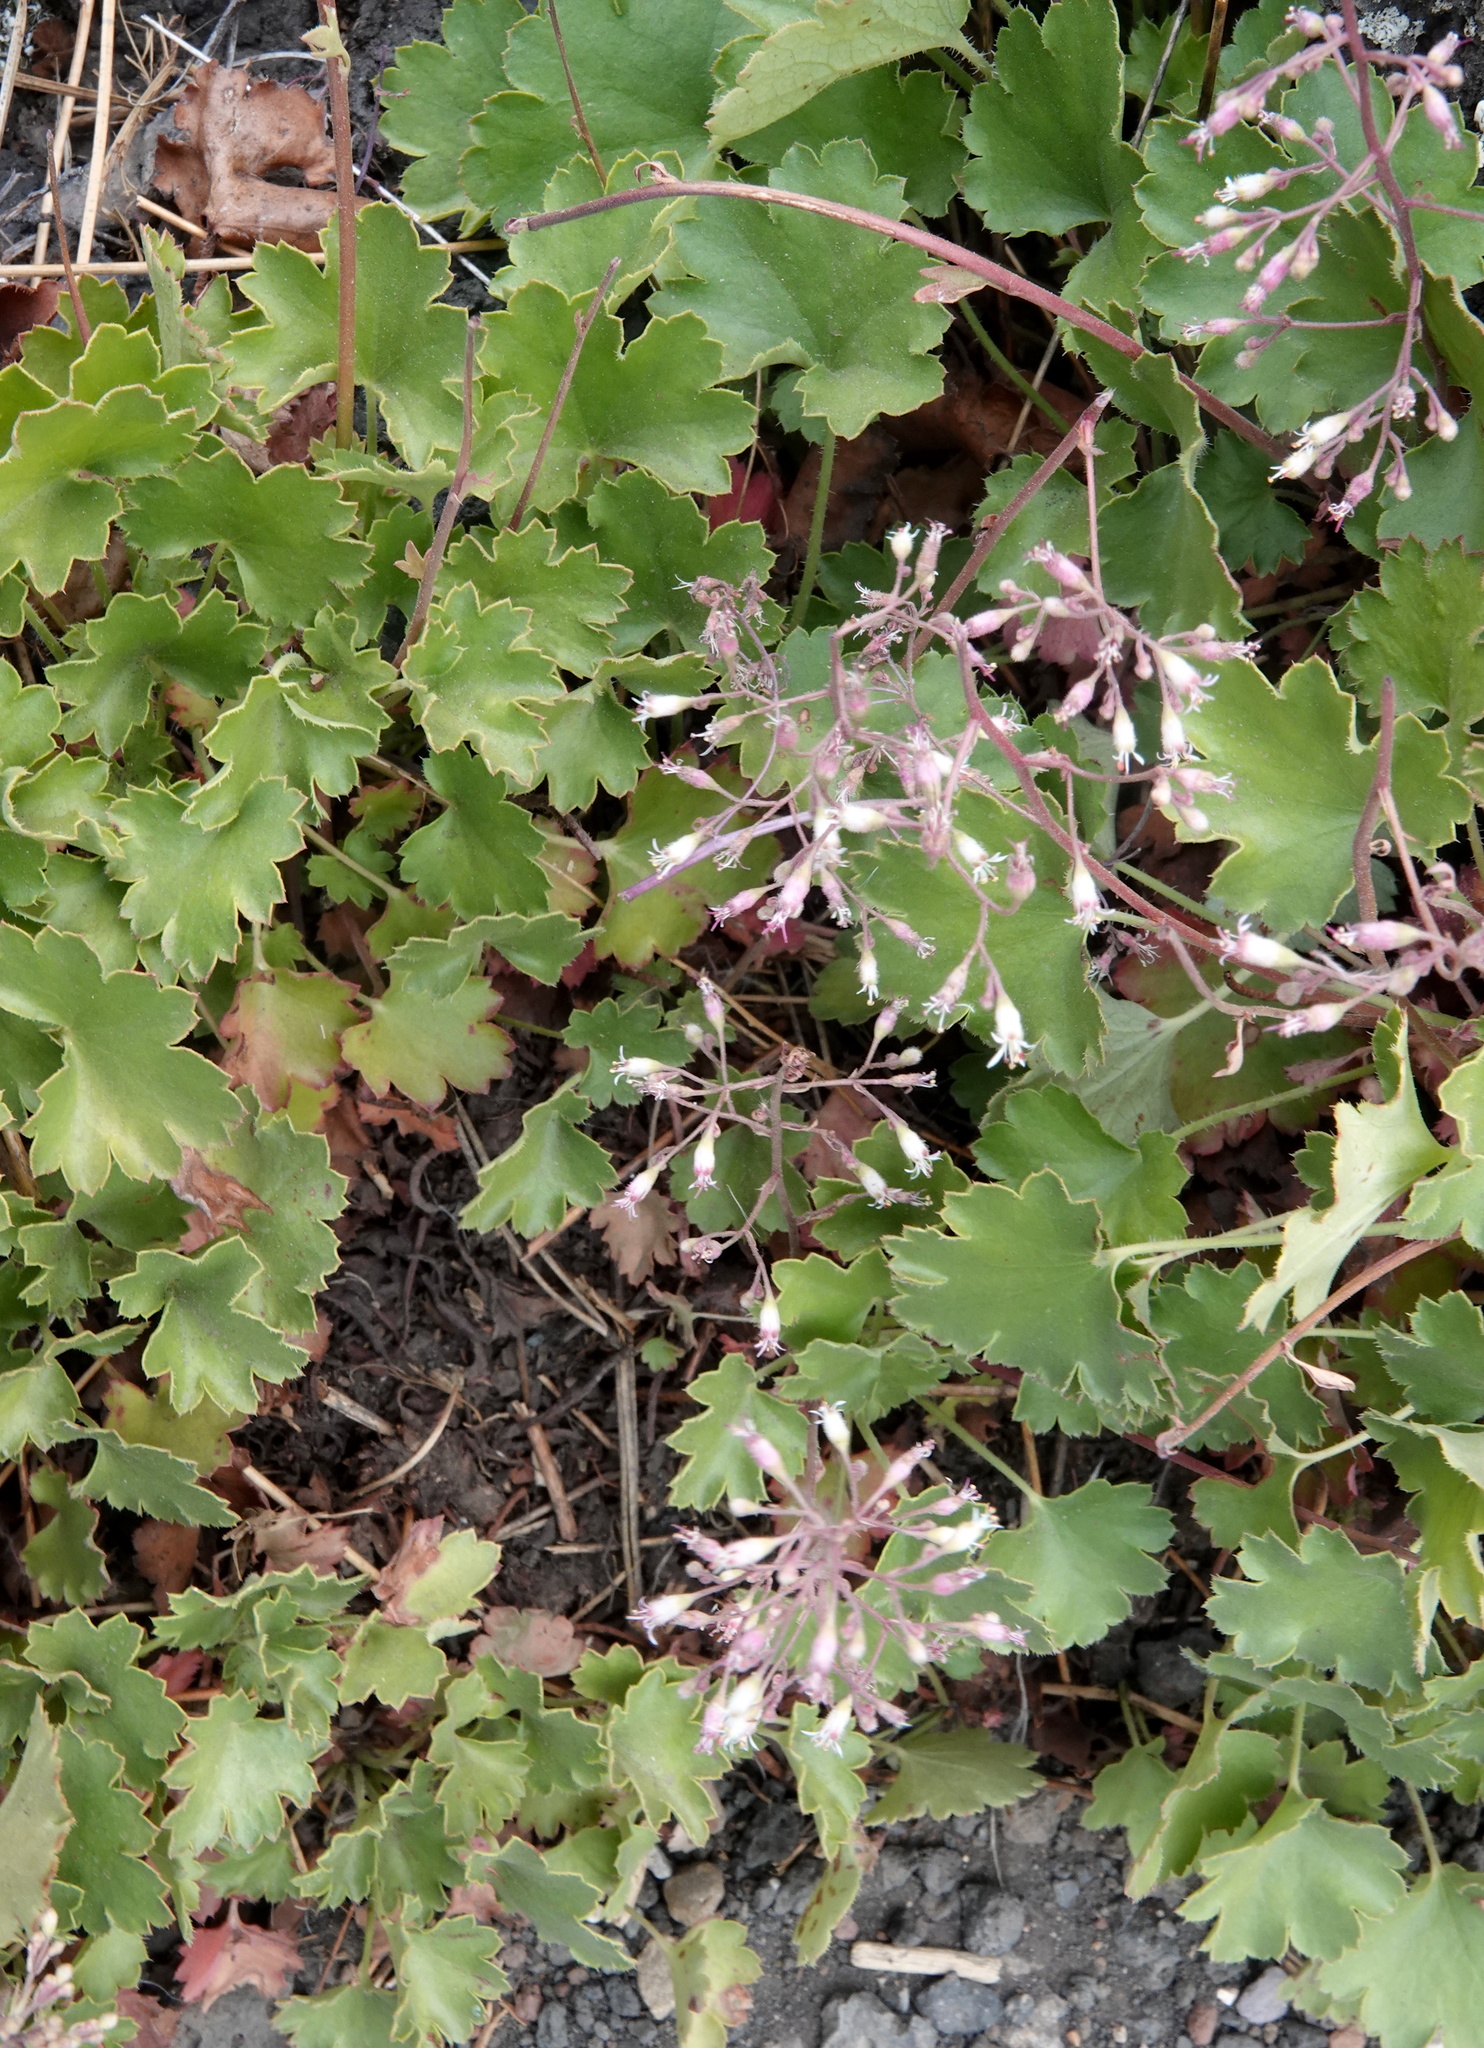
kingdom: Plantae
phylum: Tracheophyta
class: Magnoliopsida
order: Saxifragales
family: Saxifragaceae
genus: Heuchera
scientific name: Heuchera rubescens
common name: Jack-o'the-rocks
